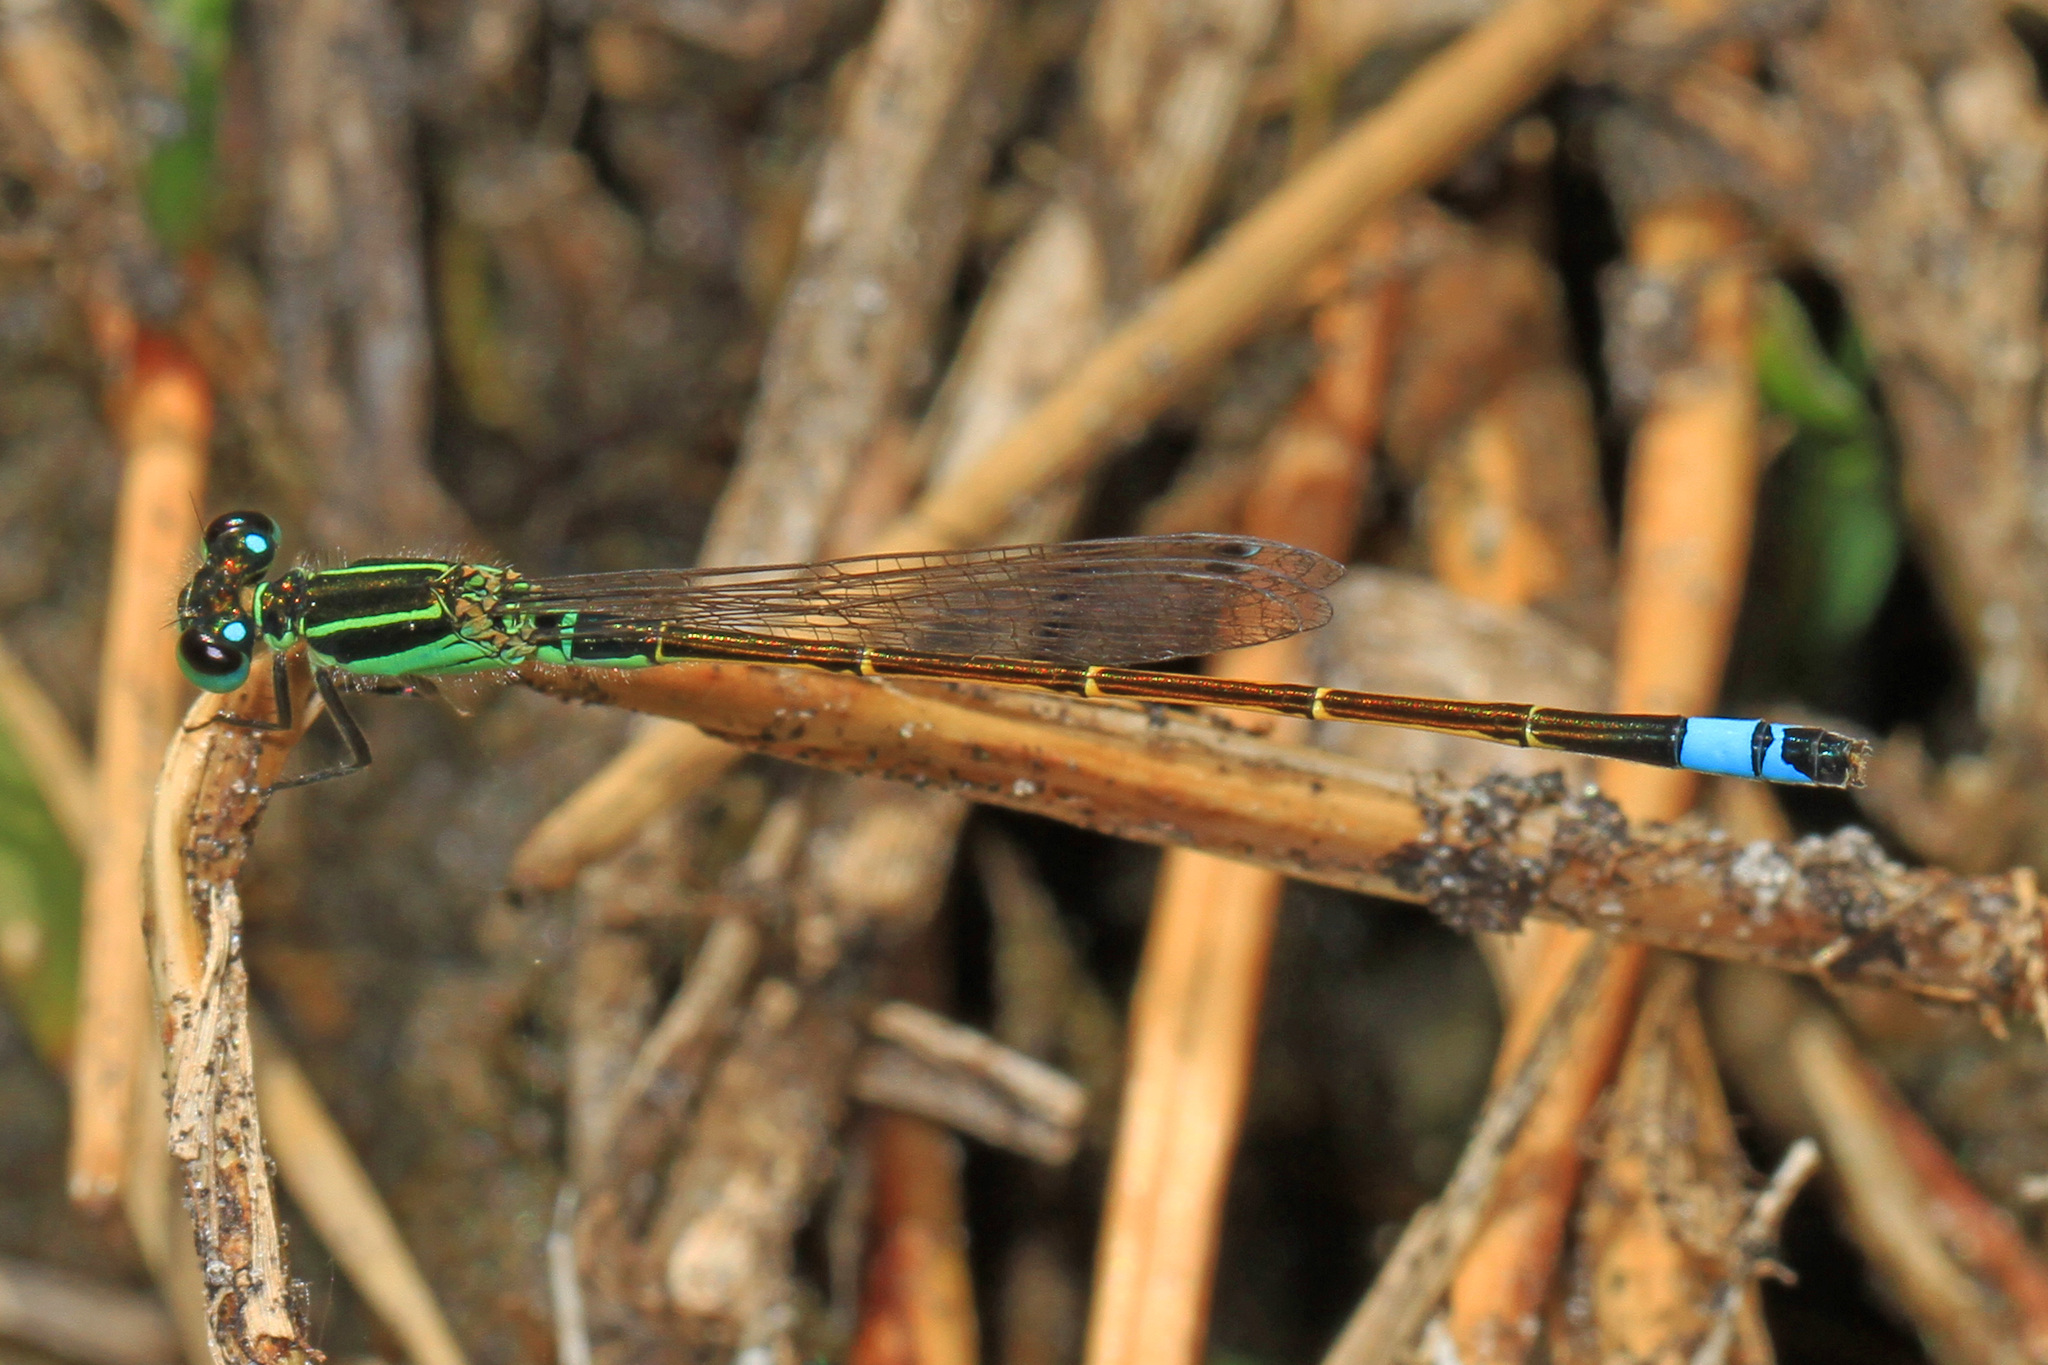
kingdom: Animalia
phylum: Arthropoda
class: Insecta
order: Odonata
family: Coenagrionidae
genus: Ischnura
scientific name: Ischnura ramburii
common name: Rambur's forktail
